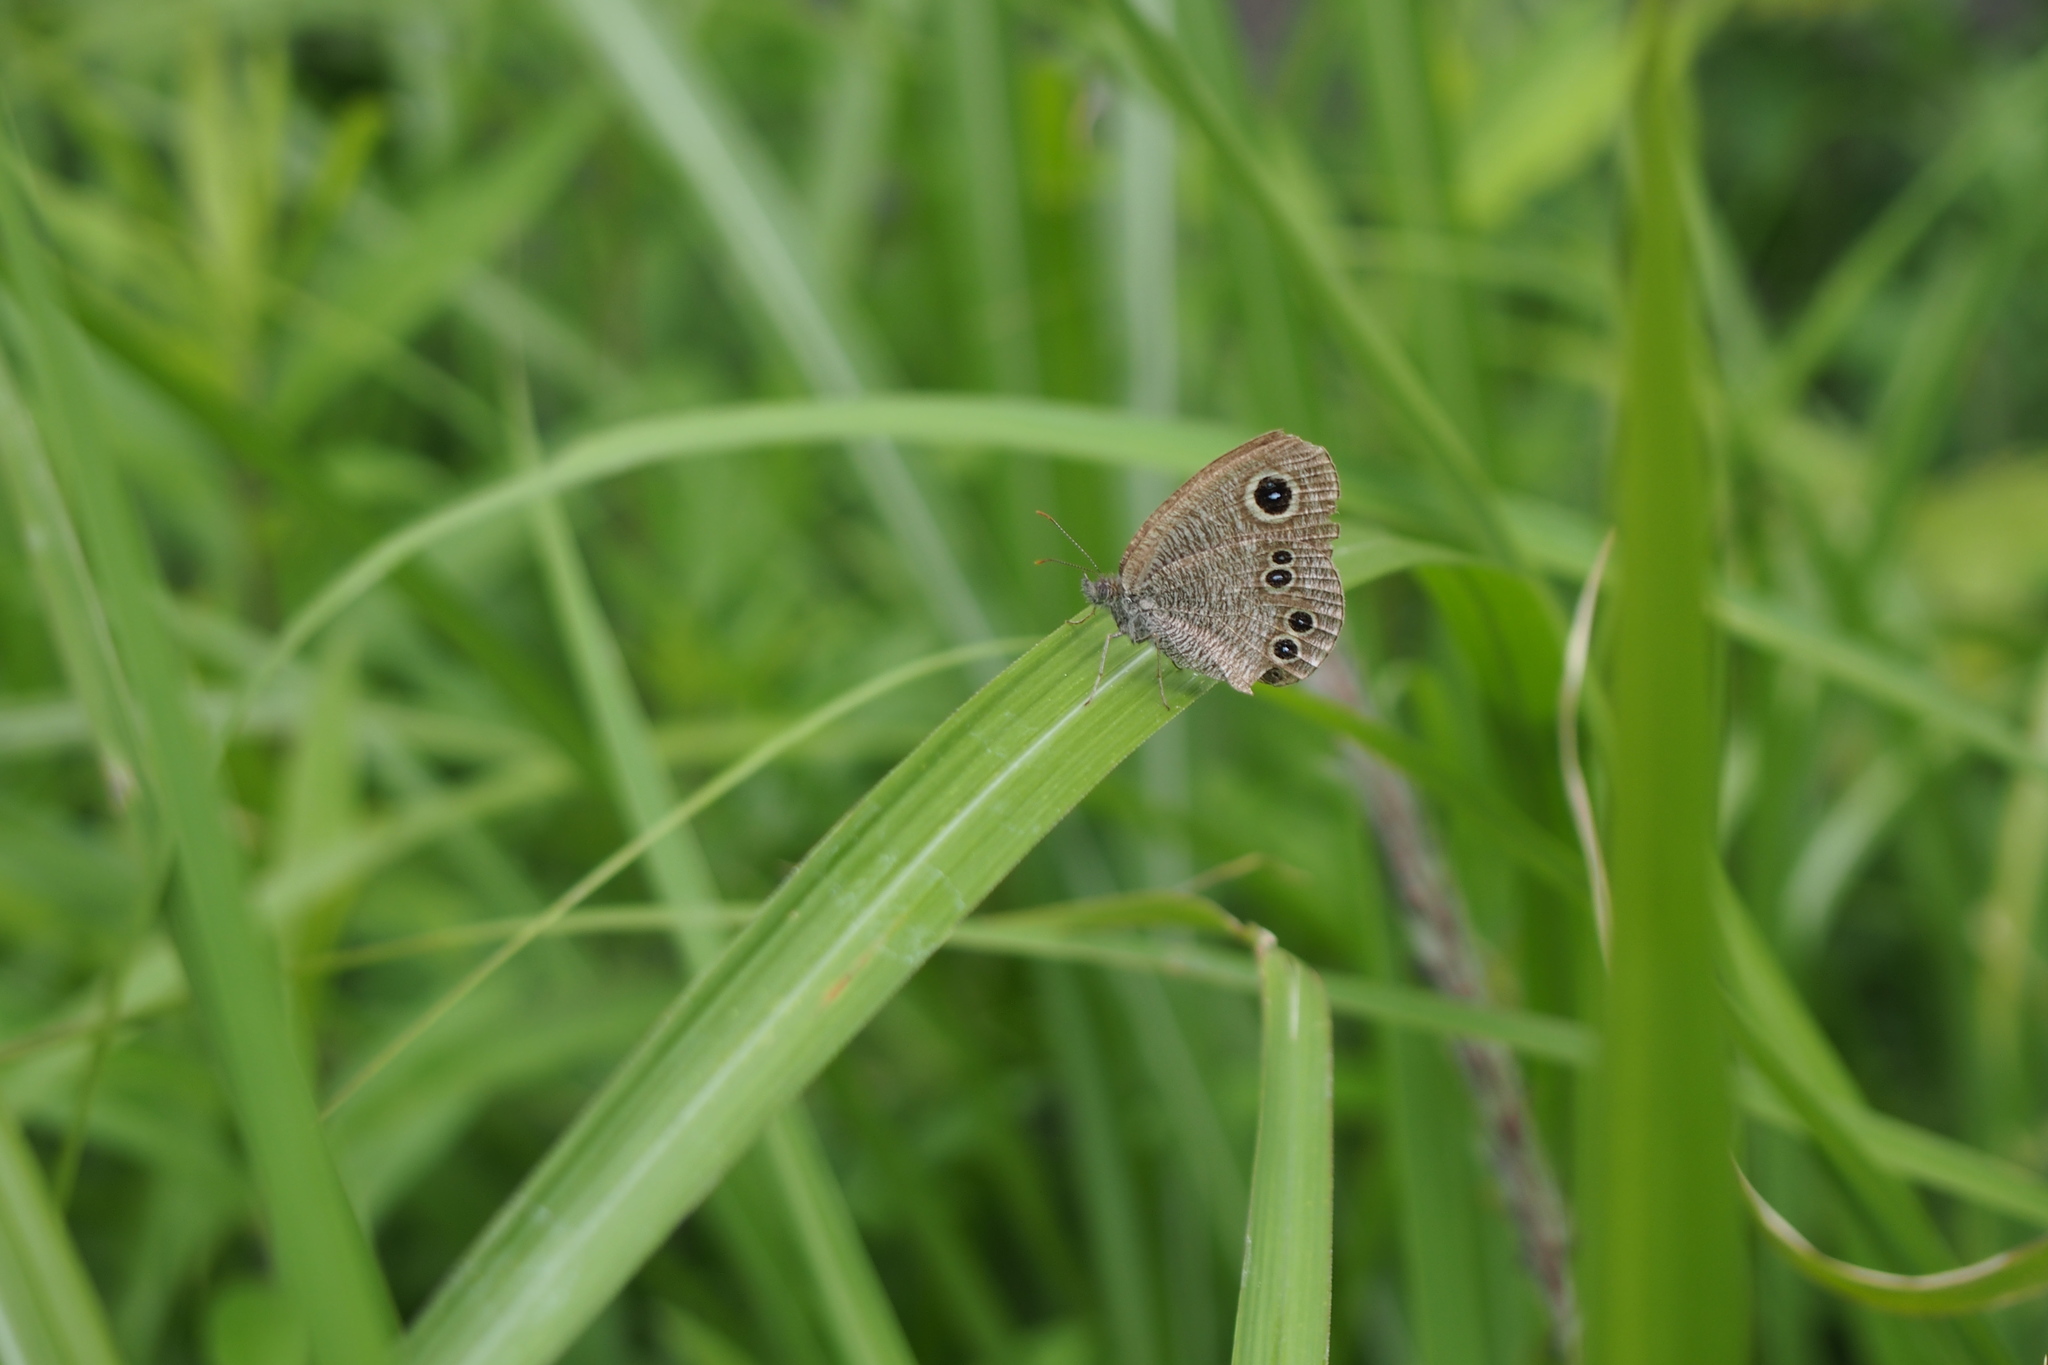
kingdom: Animalia
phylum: Arthropoda
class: Insecta
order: Lepidoptera
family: Nymphalidae
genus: Ypthima
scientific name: Ypthima argus
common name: Common fivering
